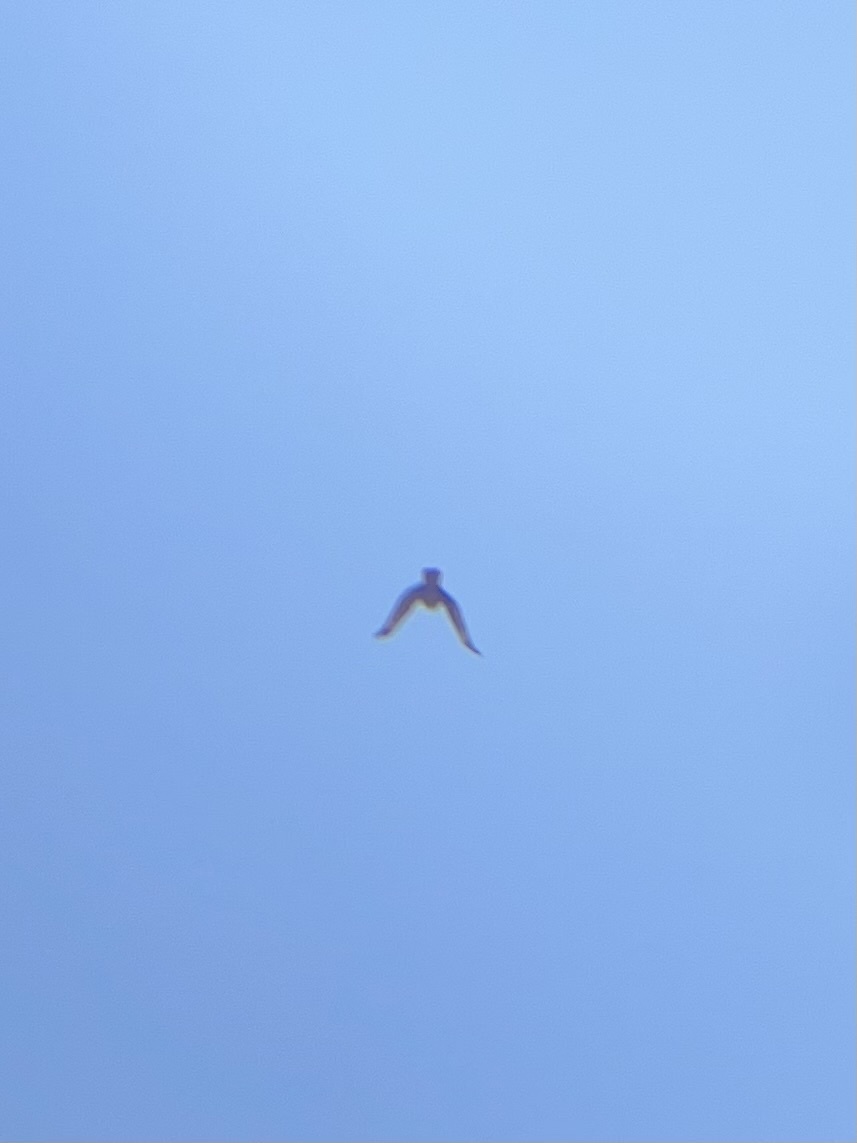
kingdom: Animalia
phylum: Chordata
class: Aves
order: Accipitriformes
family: Accipitridae
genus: Buteo
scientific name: Buteo jamaicensis
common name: Red-tailed hawk
